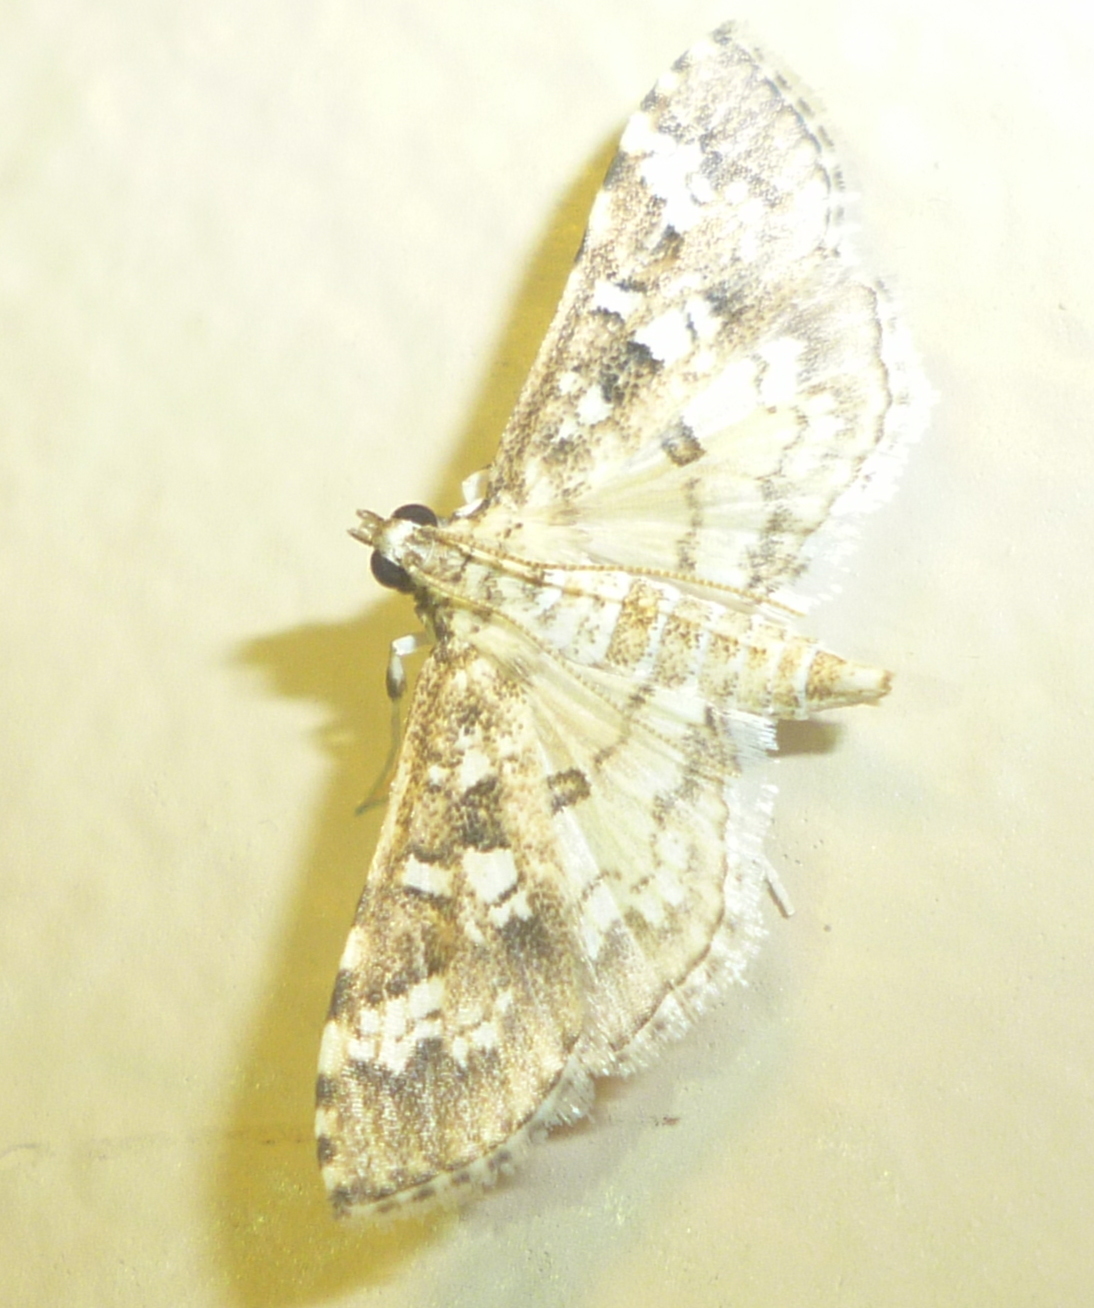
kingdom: Animalia
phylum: Arthropoda
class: Insecta
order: Lepidoptera
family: Crambidae
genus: Samea
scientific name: Samea multiplicalis
